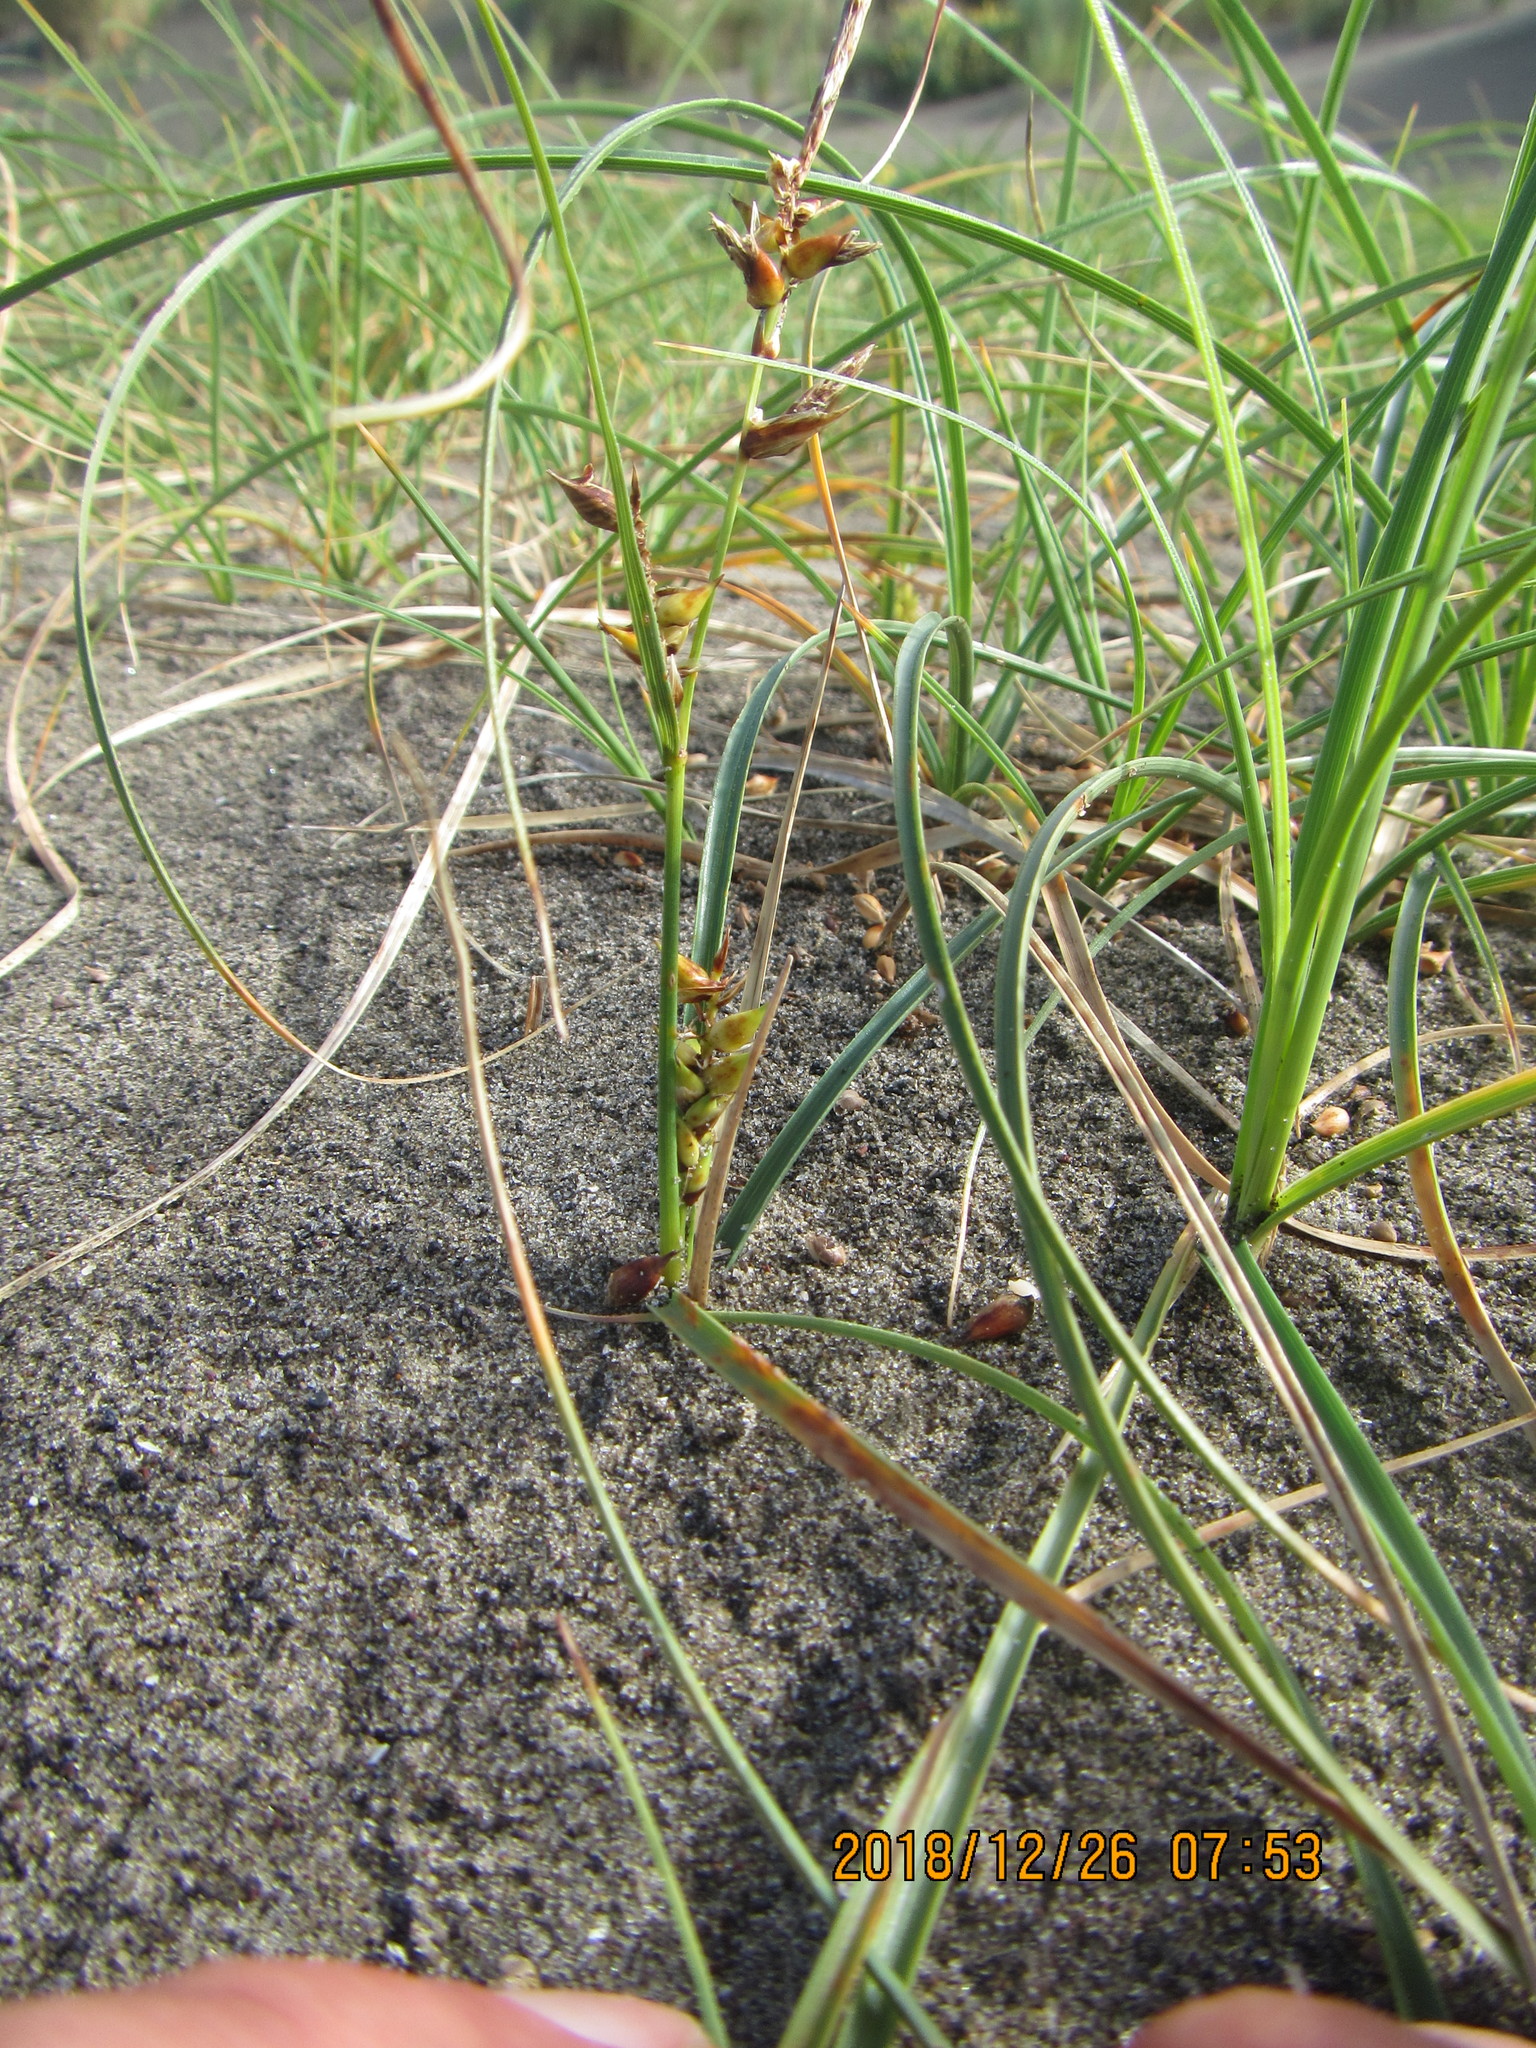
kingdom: Plantae
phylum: Tracheophyta
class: Liliopsida
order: Poales
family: Cyperaceae
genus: Carex
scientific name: Carex pumila
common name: Dwarf sedge
